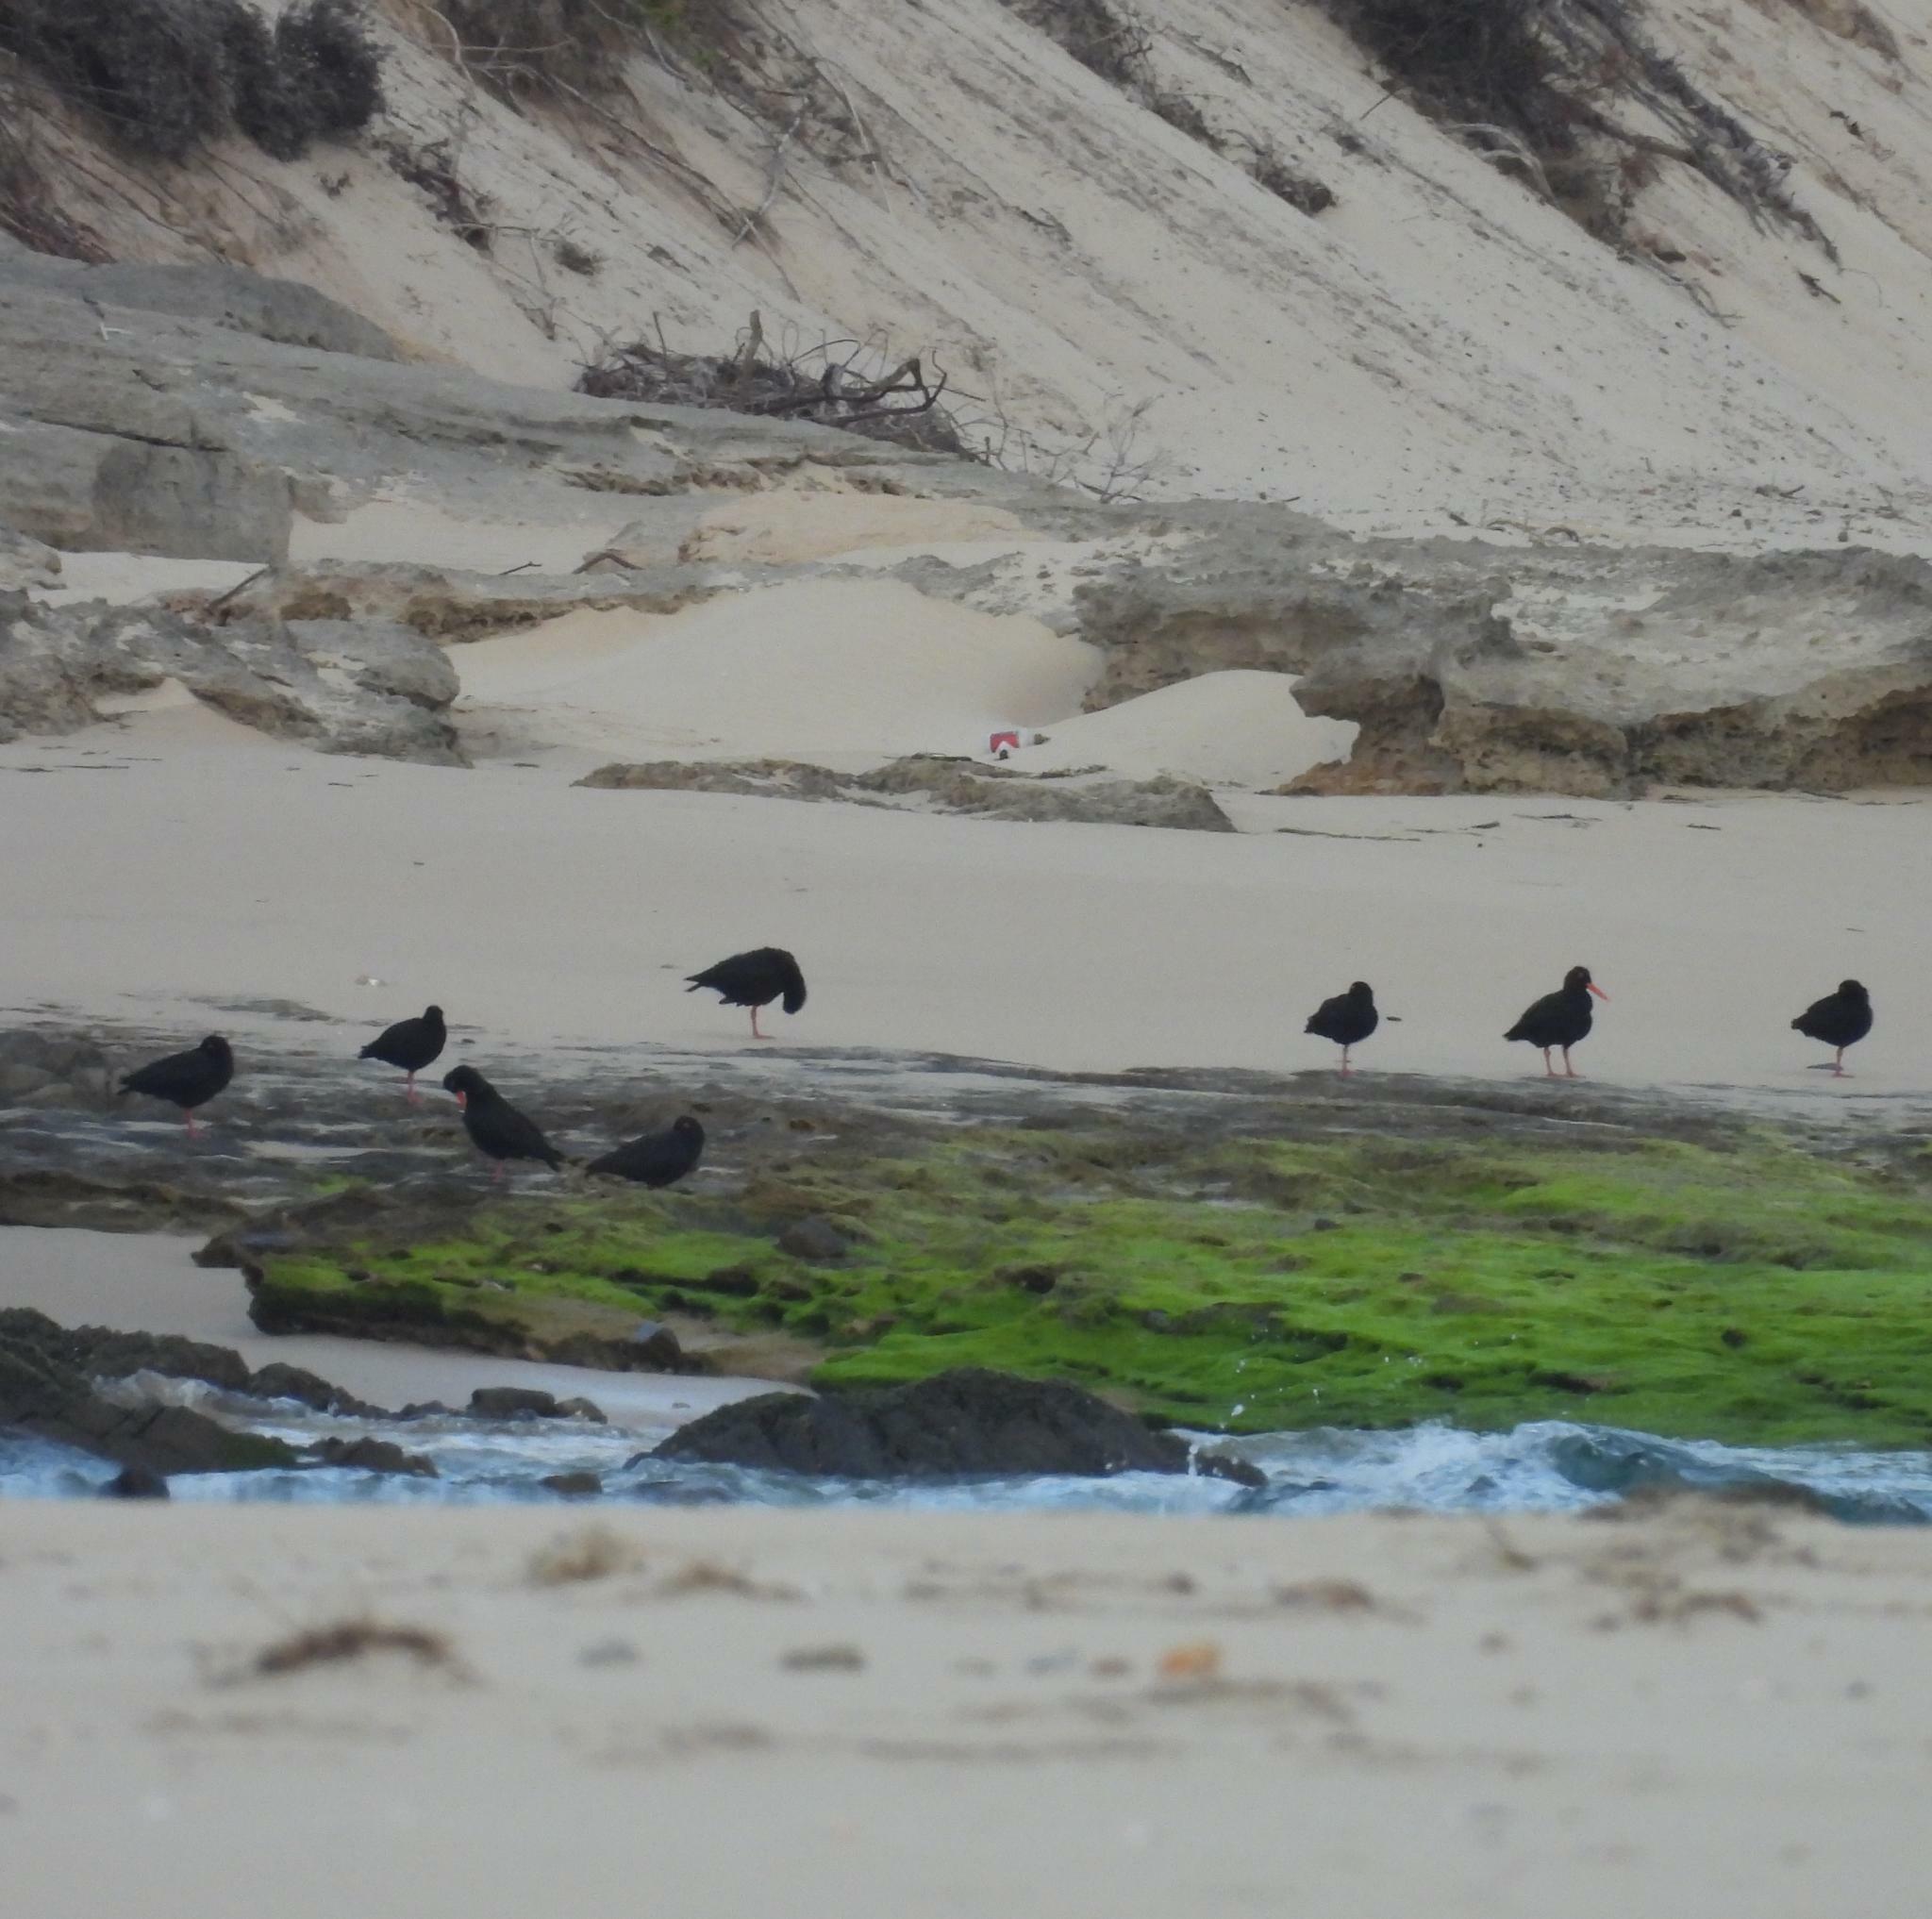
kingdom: Animalia
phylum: Chordata
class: Aves
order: Charadriiformes
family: Haematopodidae
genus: Haematopus
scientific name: Haematopus moquini
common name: African oystercatcher
